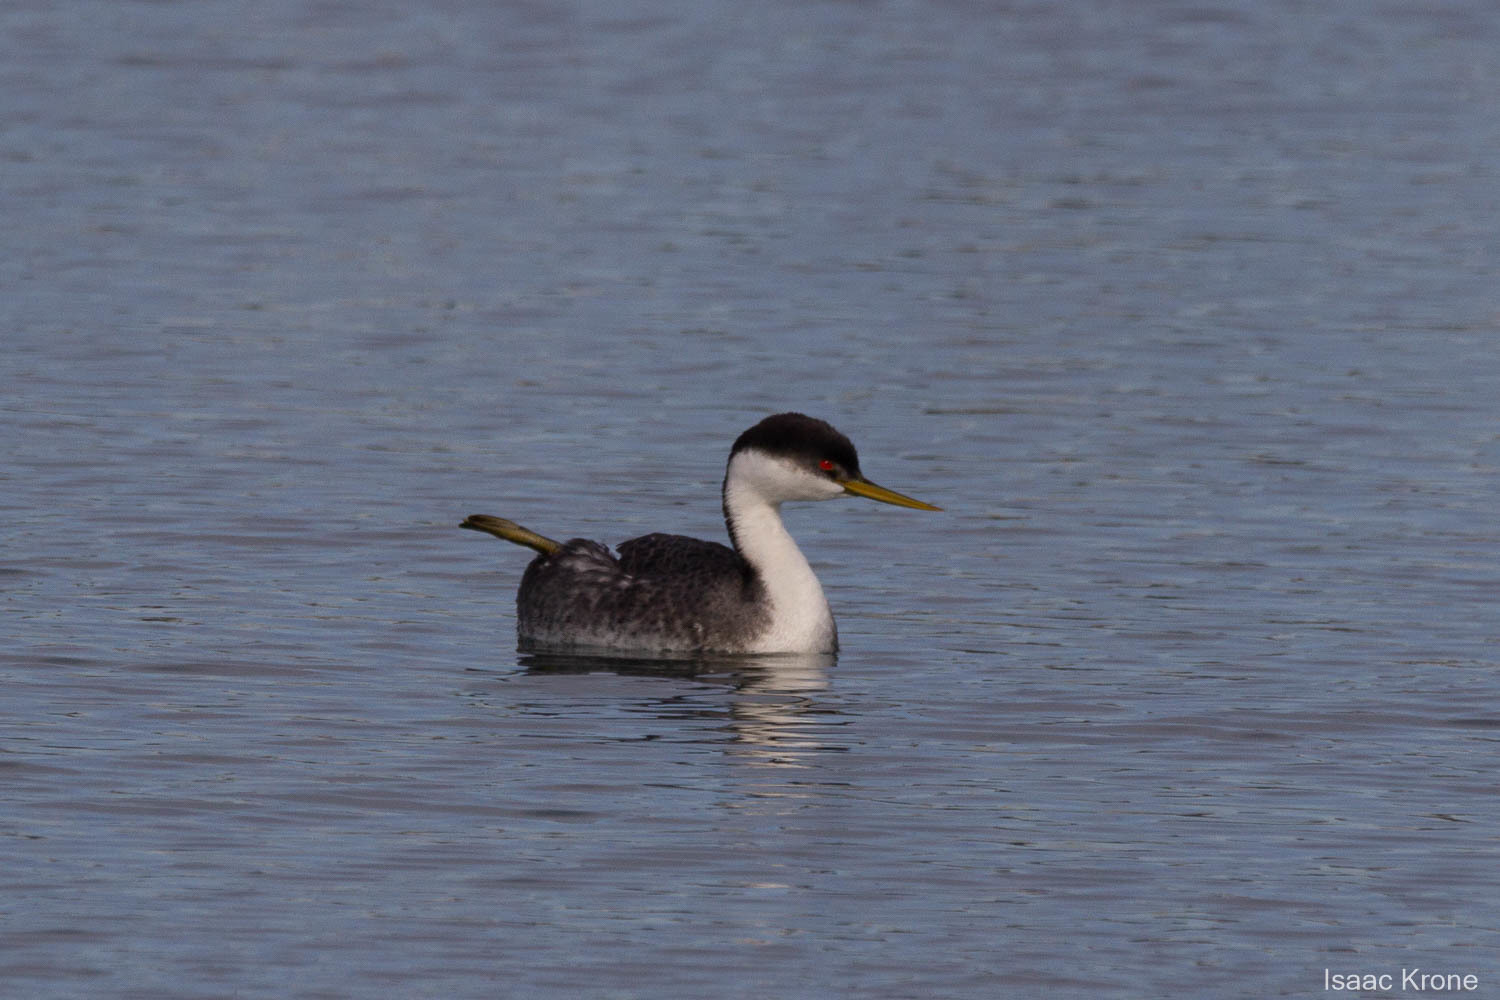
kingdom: Animalia
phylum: Chordata
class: Aves
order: Podicipediformes
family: Podicipedidae
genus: Aechmophorus
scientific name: Aechmophorus occidentalis
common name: Western grebe
